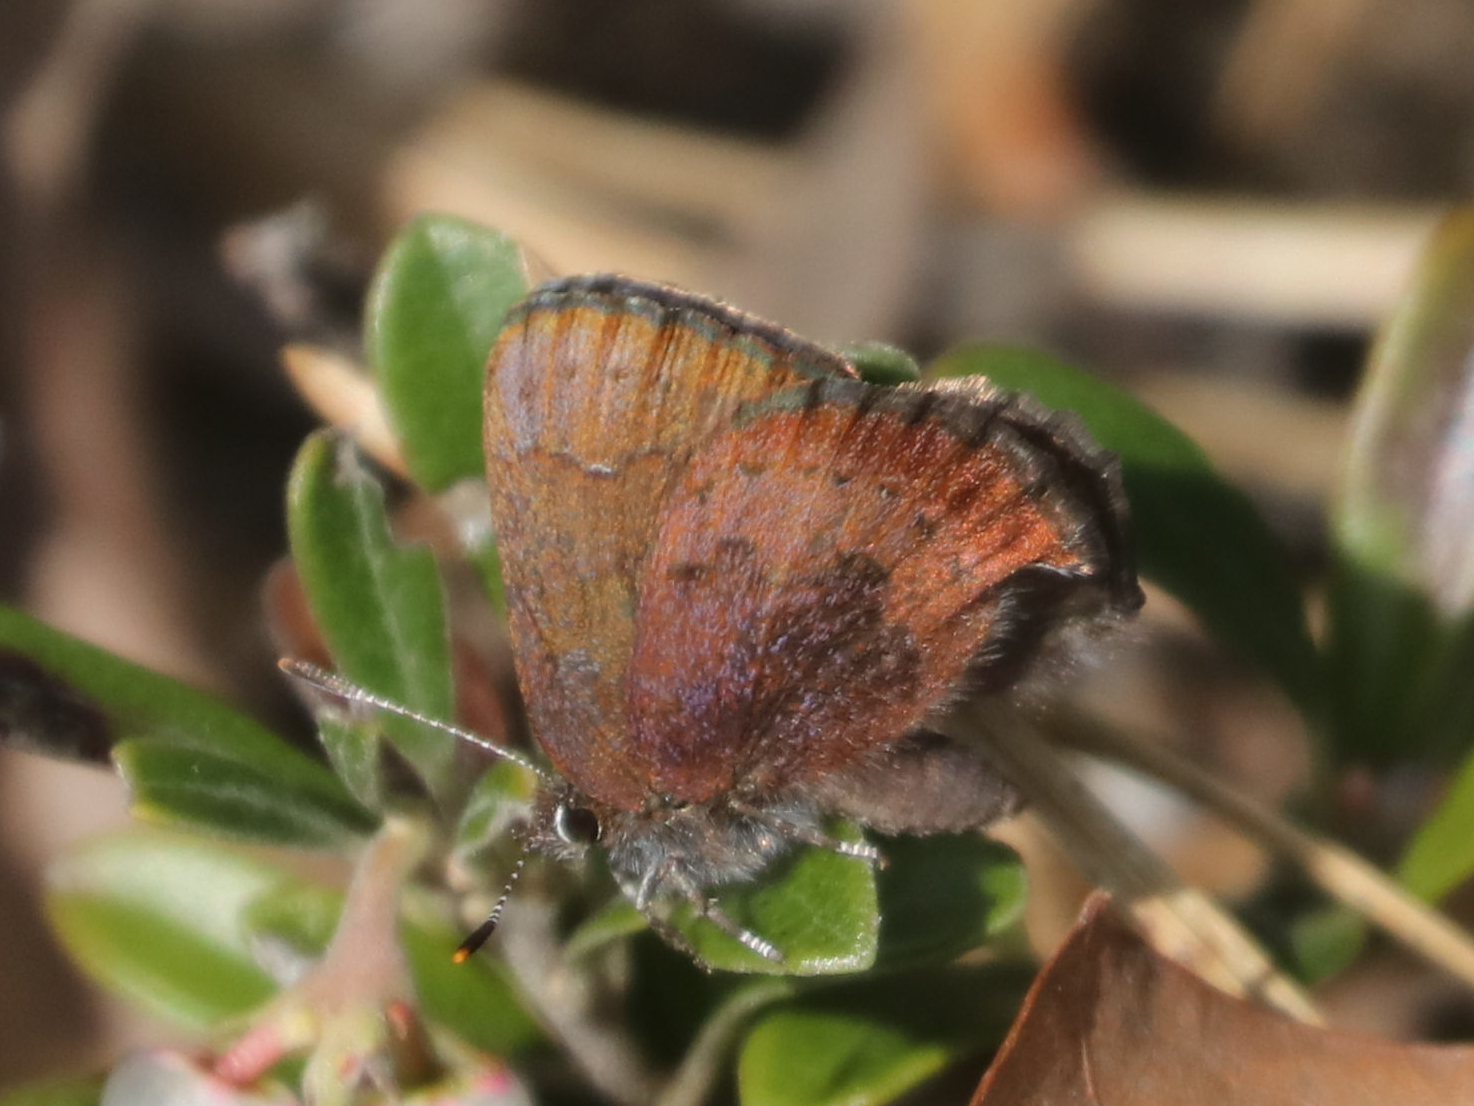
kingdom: Animalia
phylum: Arthropoda
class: Insecta
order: Lepidoptera
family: Lycaenidae
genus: Incisalia
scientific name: Incisalia irioides
